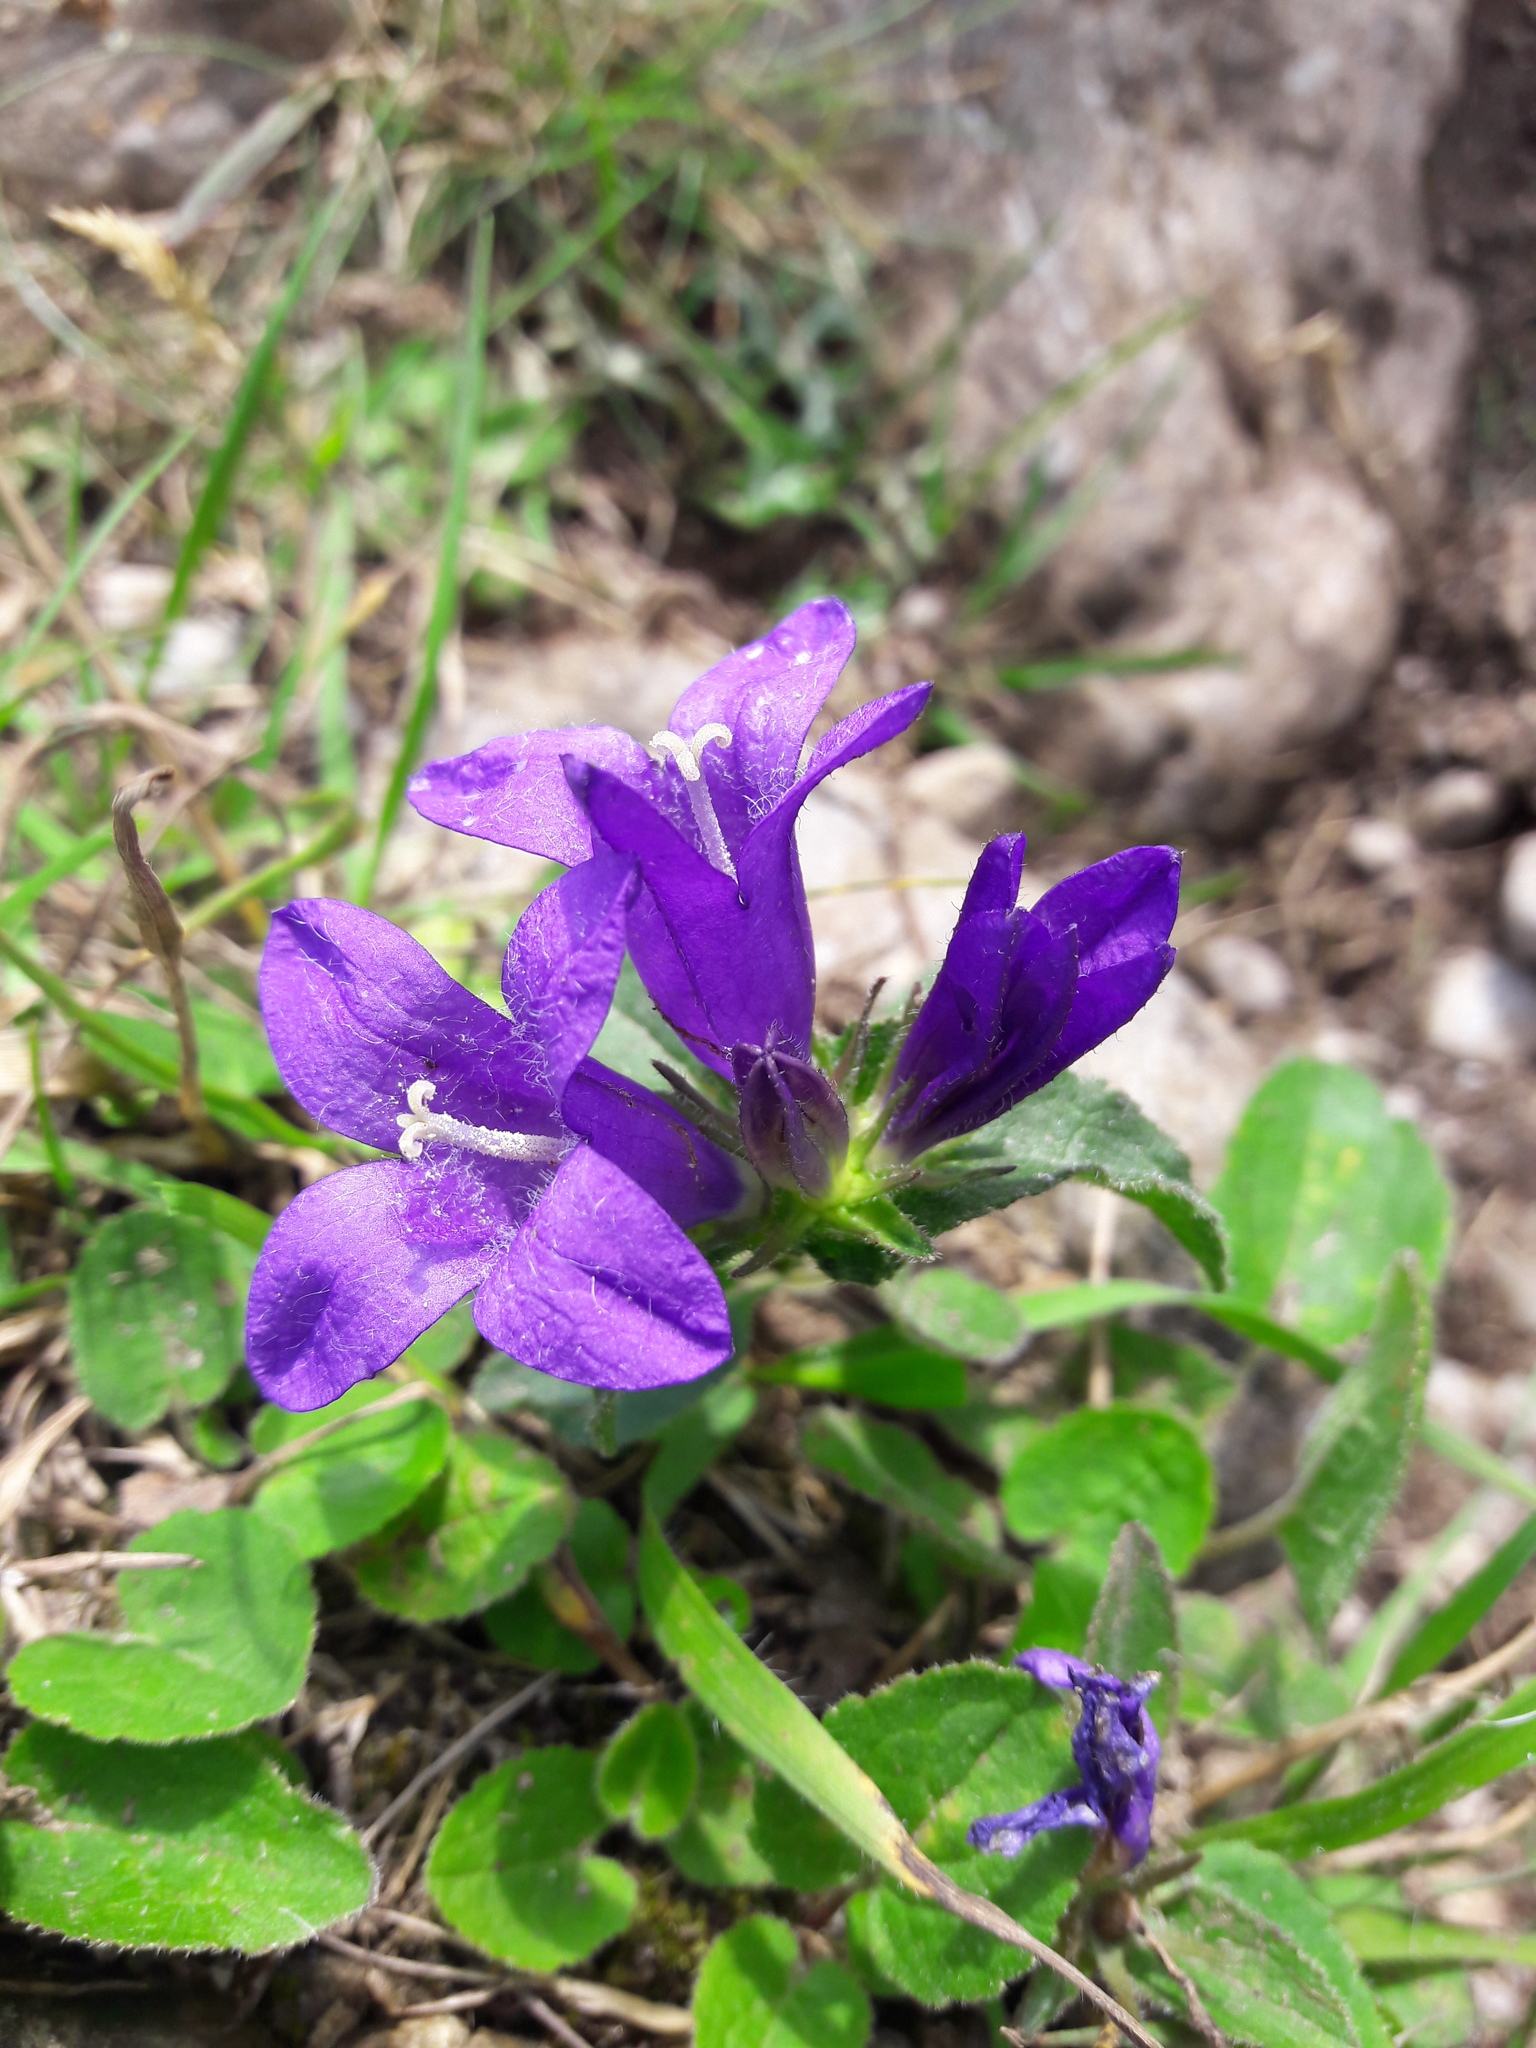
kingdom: Plantae
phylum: Tracheophyta
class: Magnoliopsida
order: Asterales
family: Campanulaceae
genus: Campanula
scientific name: Campanula glomerata
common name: Clustered bellflower
